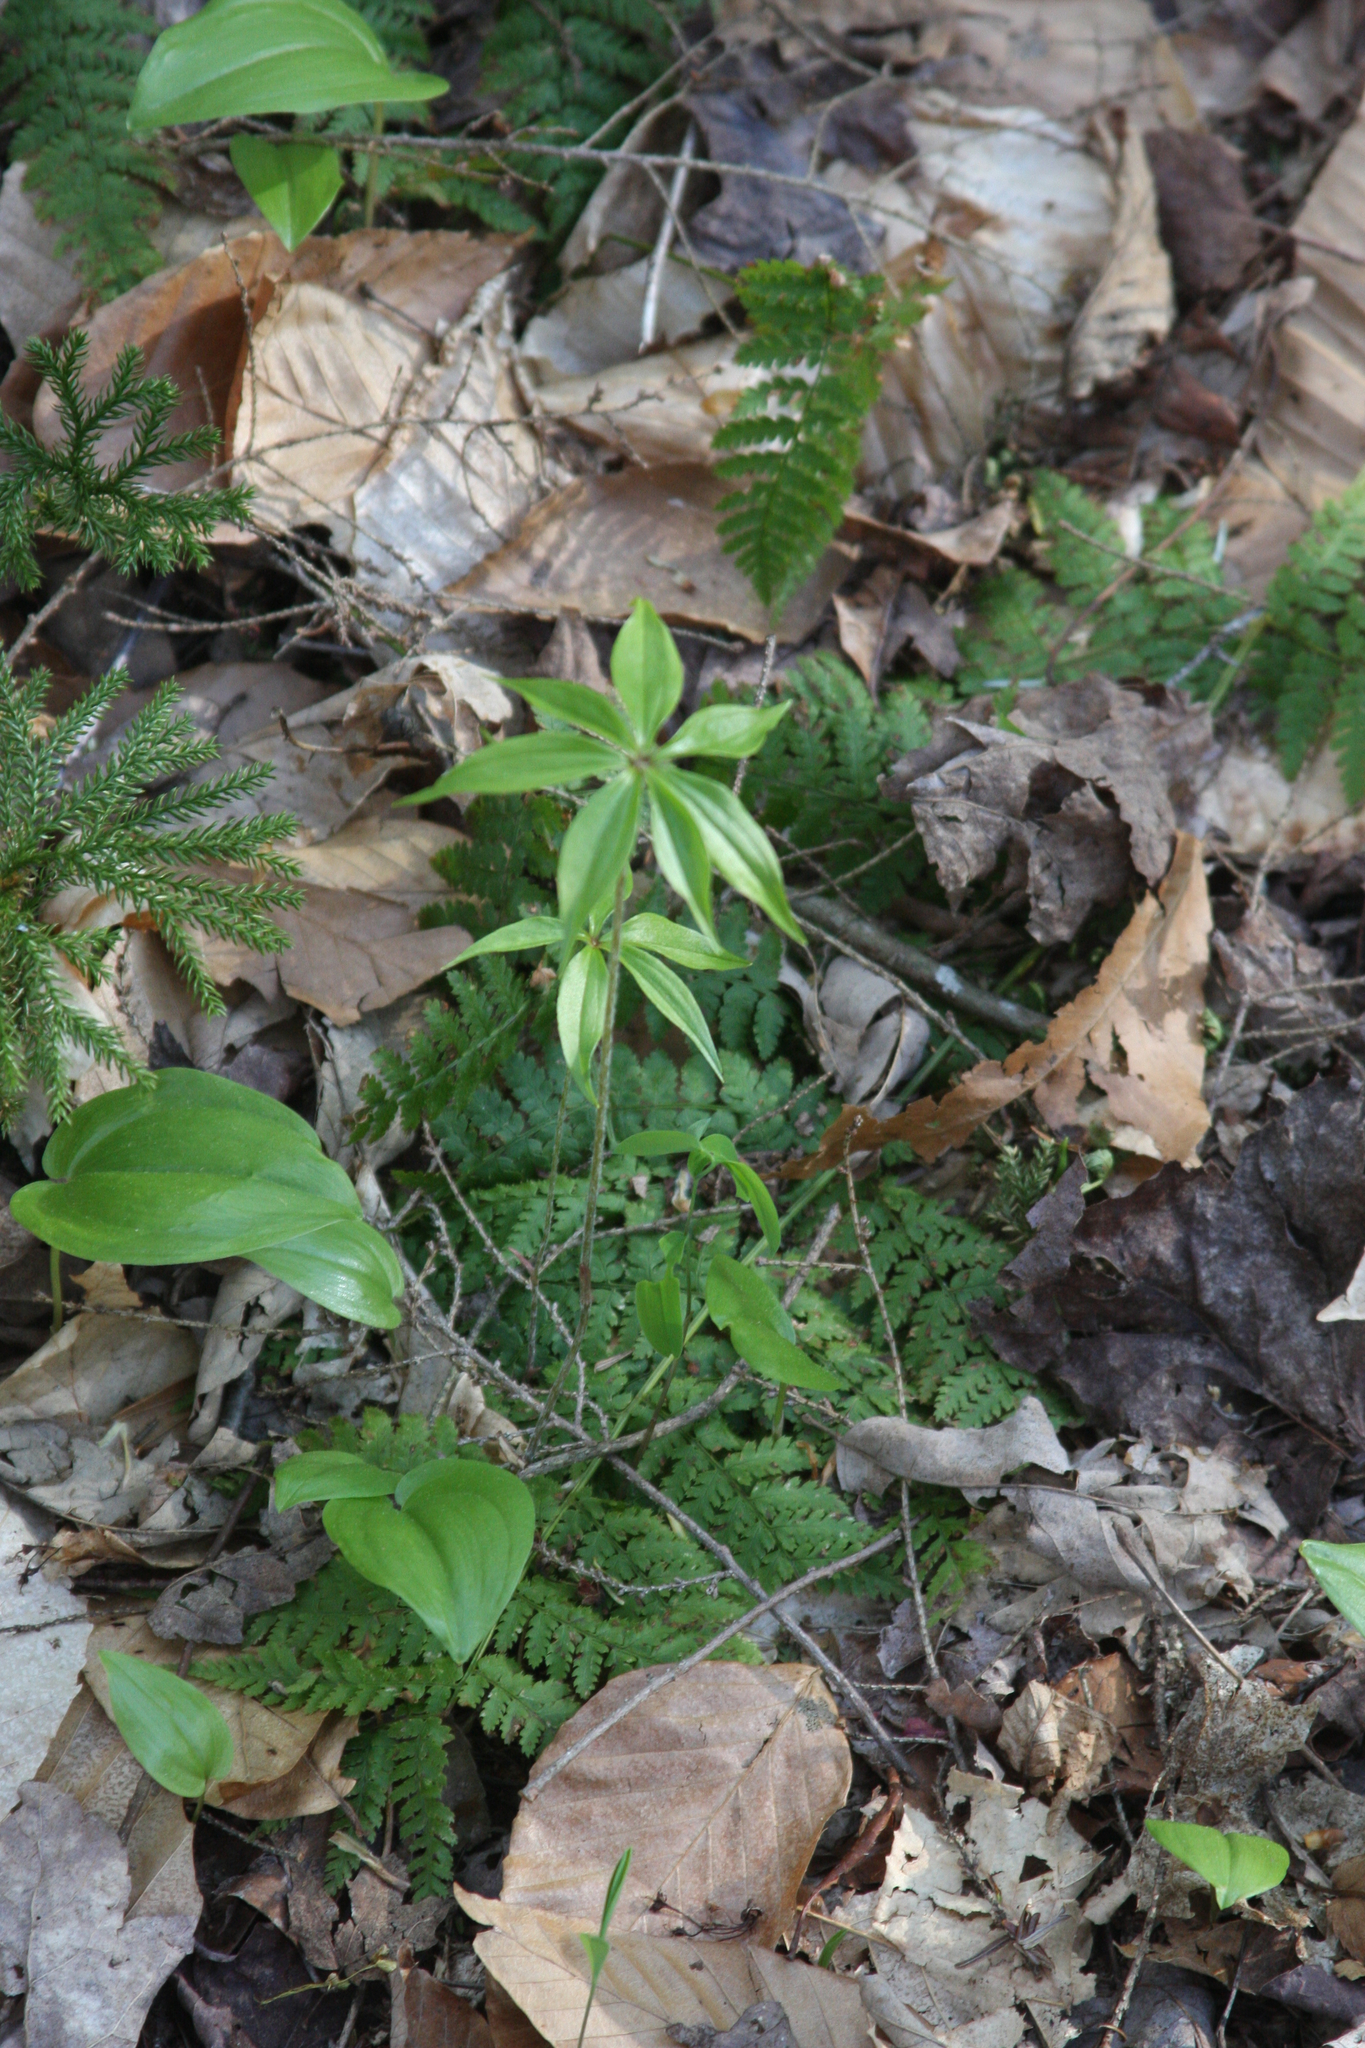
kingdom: Plantae
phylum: Tracheophyta
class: Liliopsida
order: Asparagales
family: Asparagaceae
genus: Maianthemum
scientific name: Maianthemum canadense
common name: False lily-of-the-valley
